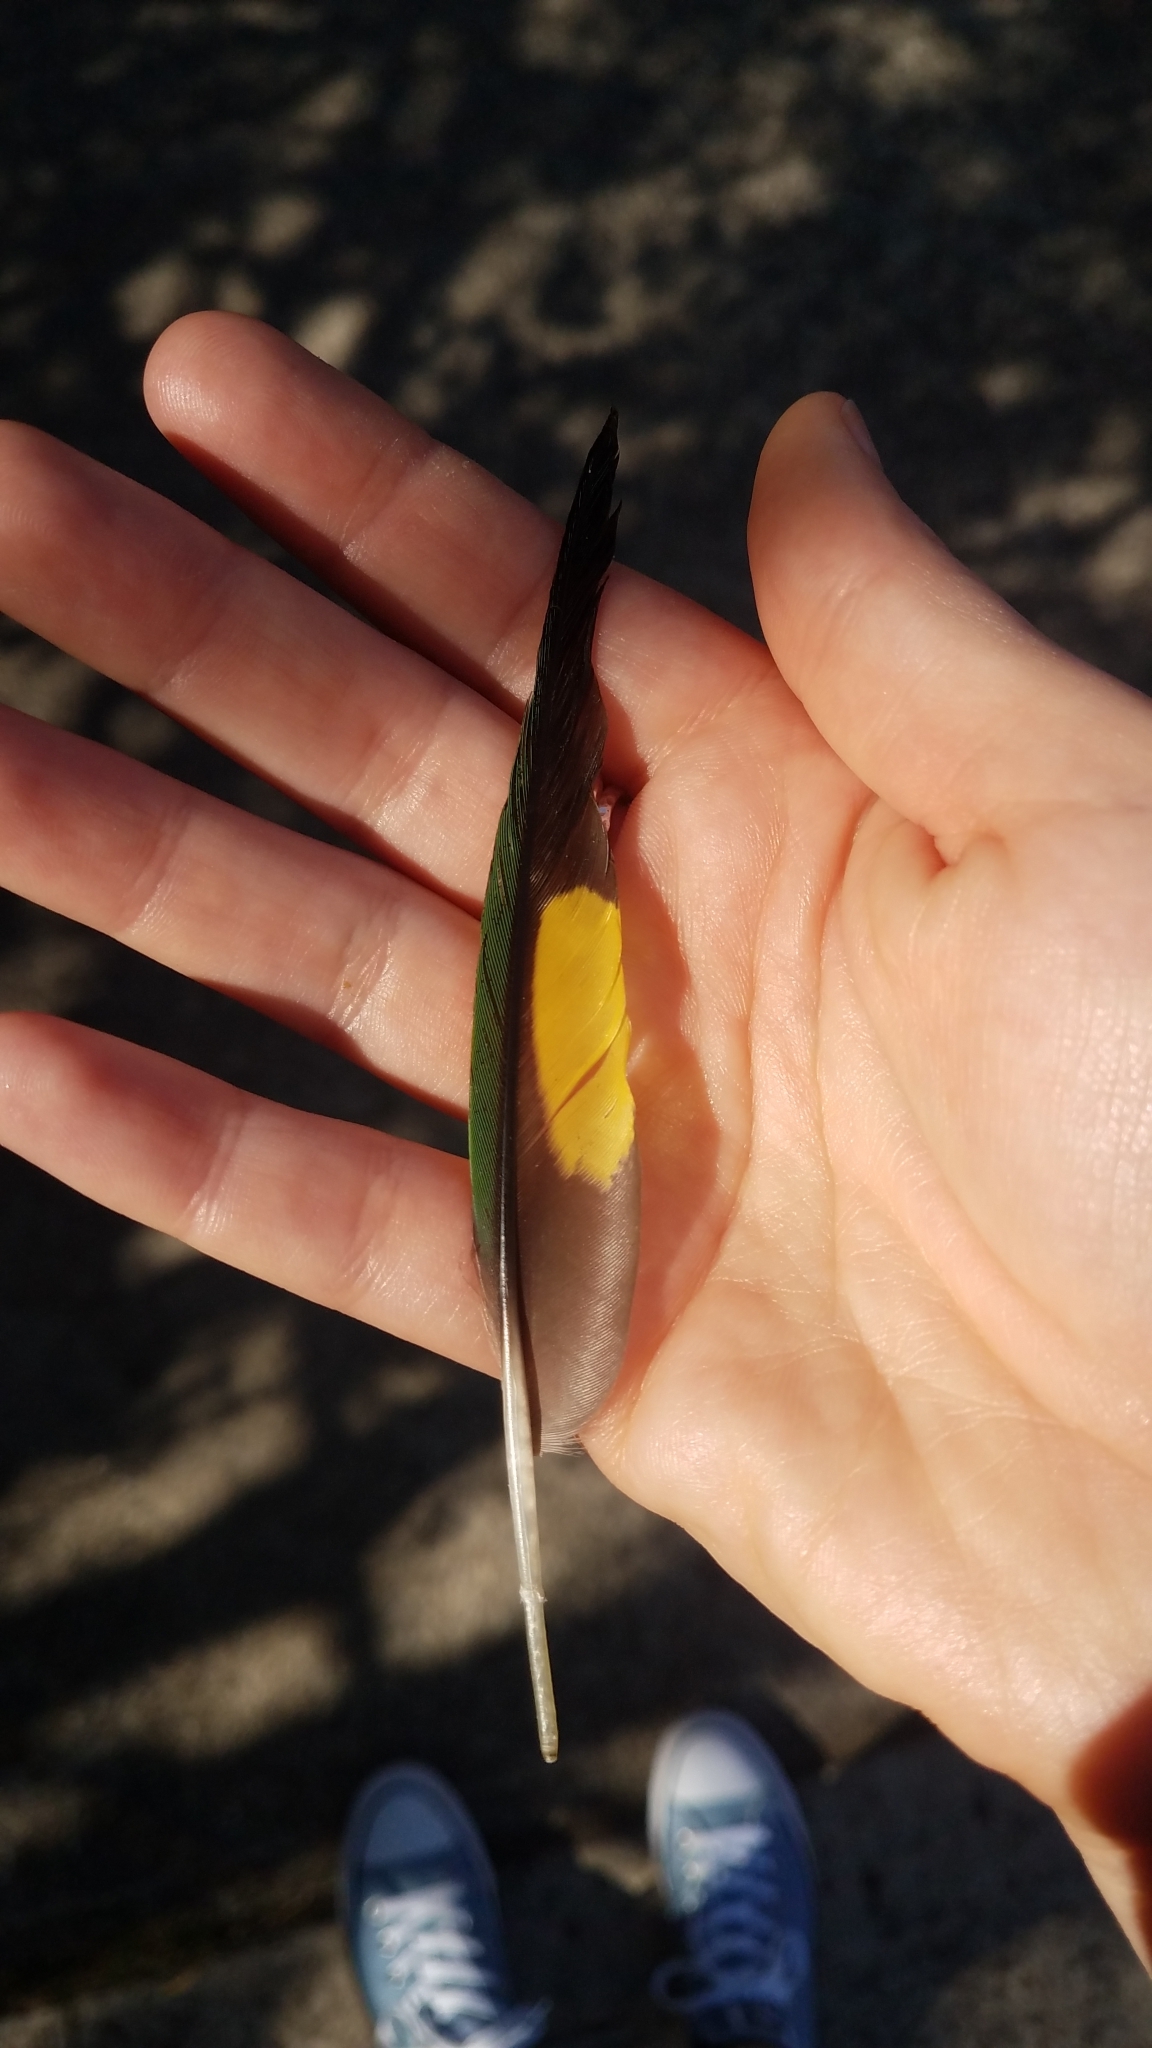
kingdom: Animalia
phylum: Chordata
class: Aves
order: Psittaciformes
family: Psittacidae
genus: Trichoglossus
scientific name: Trichoglossus haematodus
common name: Coconut lorikeet
